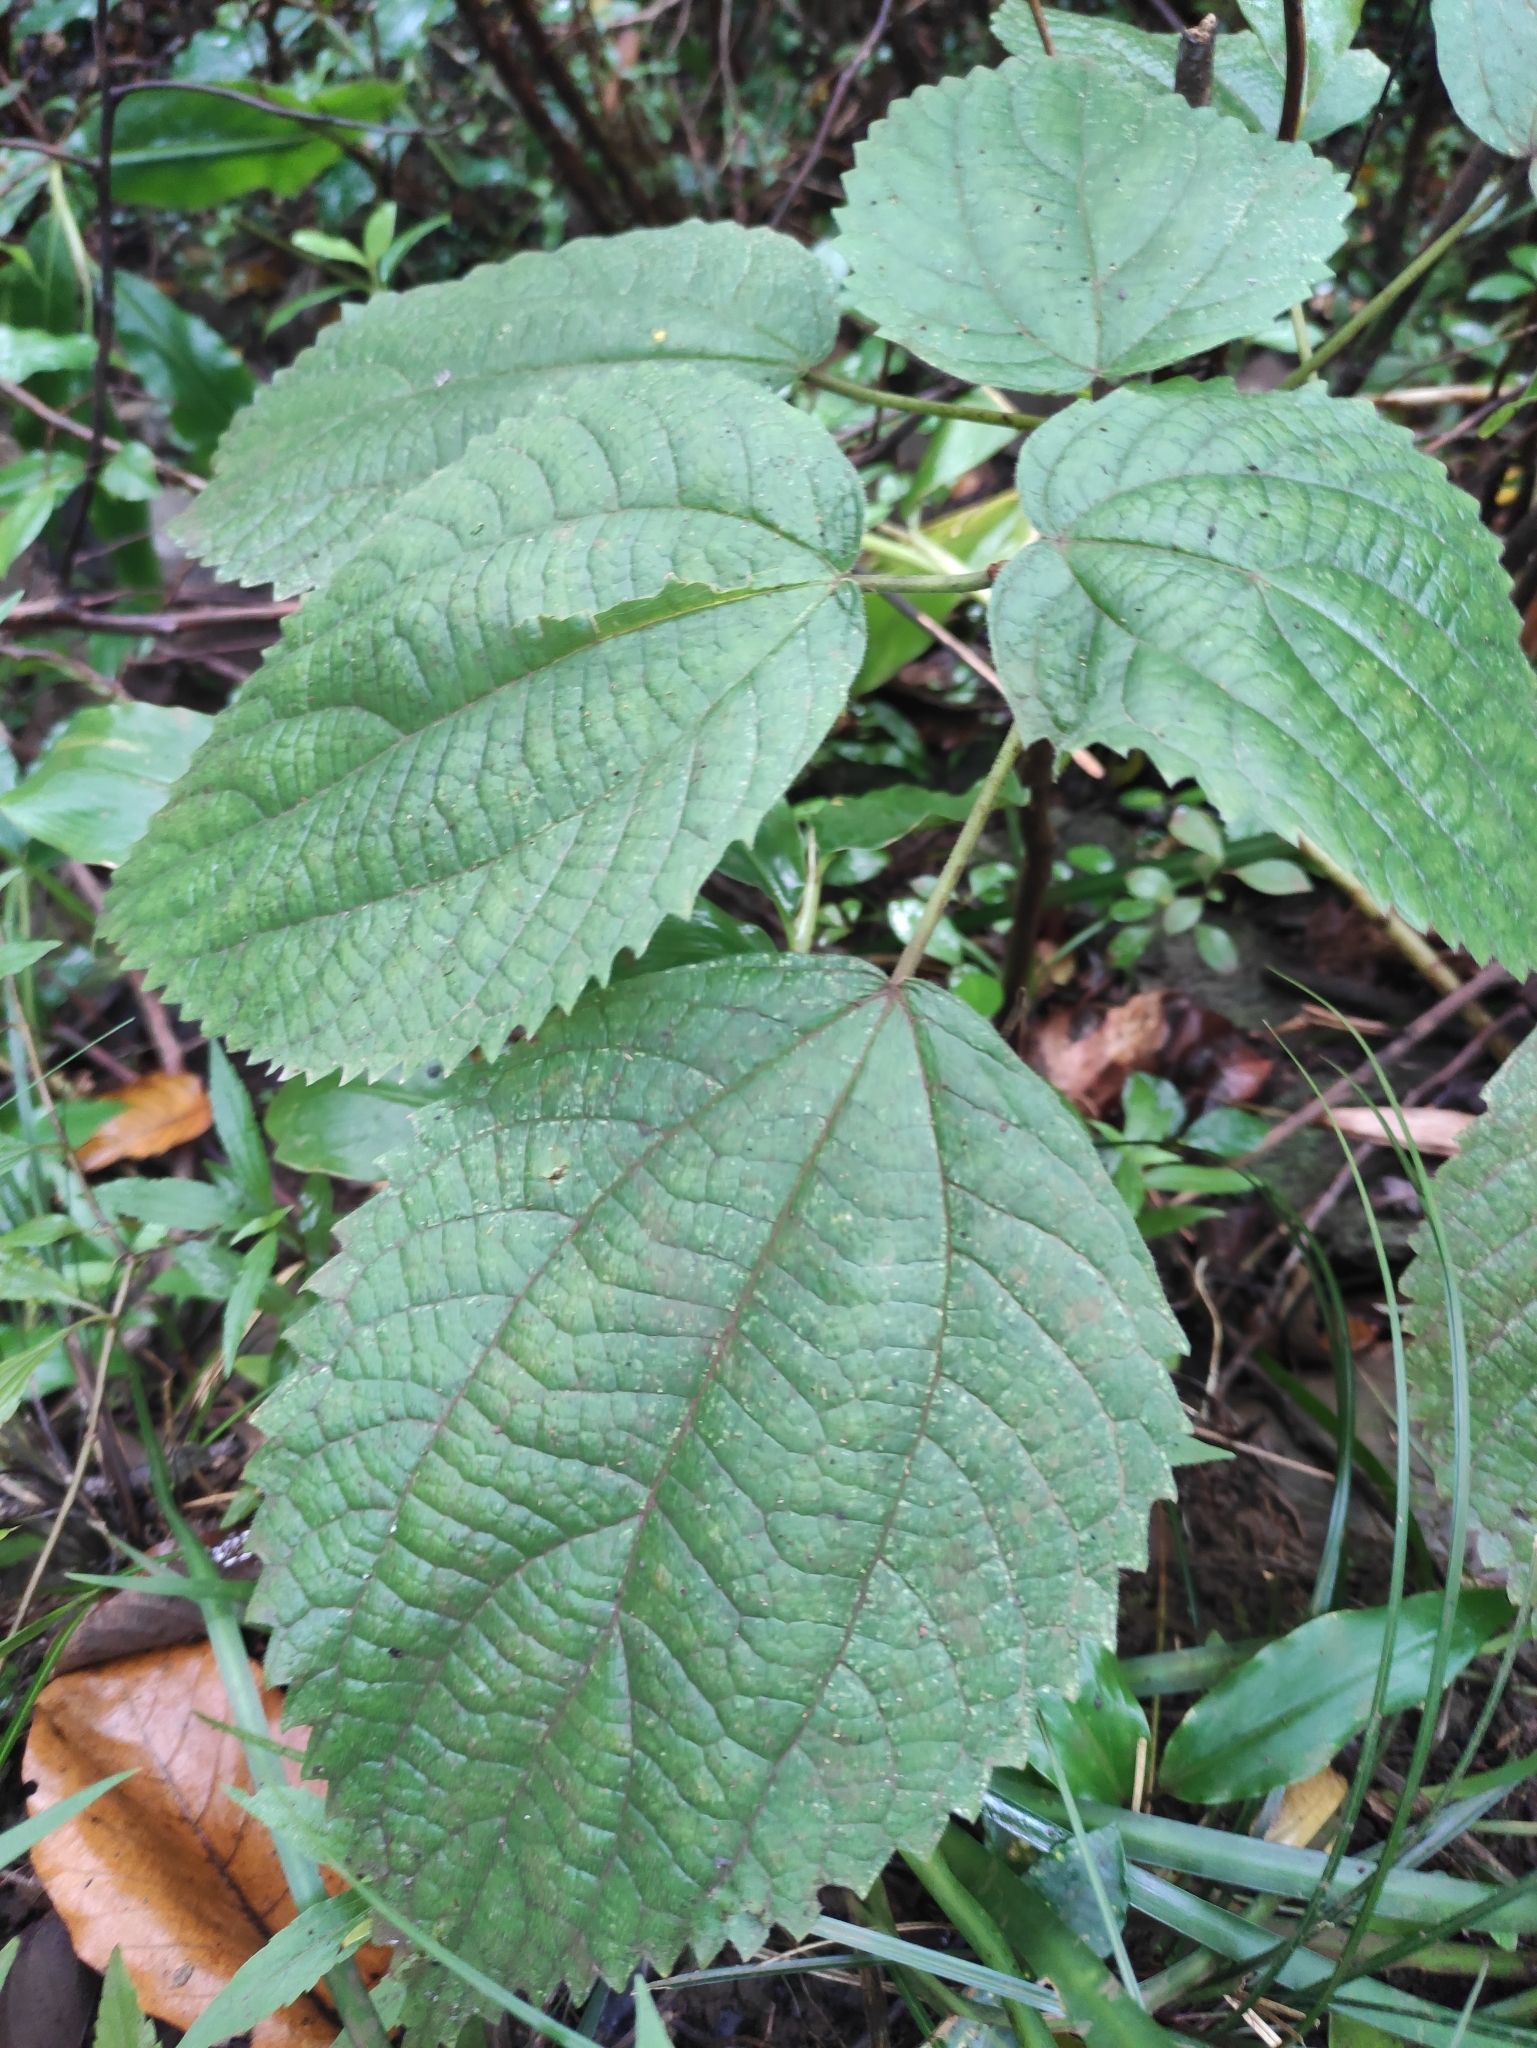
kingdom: Plantae
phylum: Tracheophyta
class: Magnoliopsida
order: Rosales
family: Urticaceae
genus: Boehmeria
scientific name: Boehmeria
